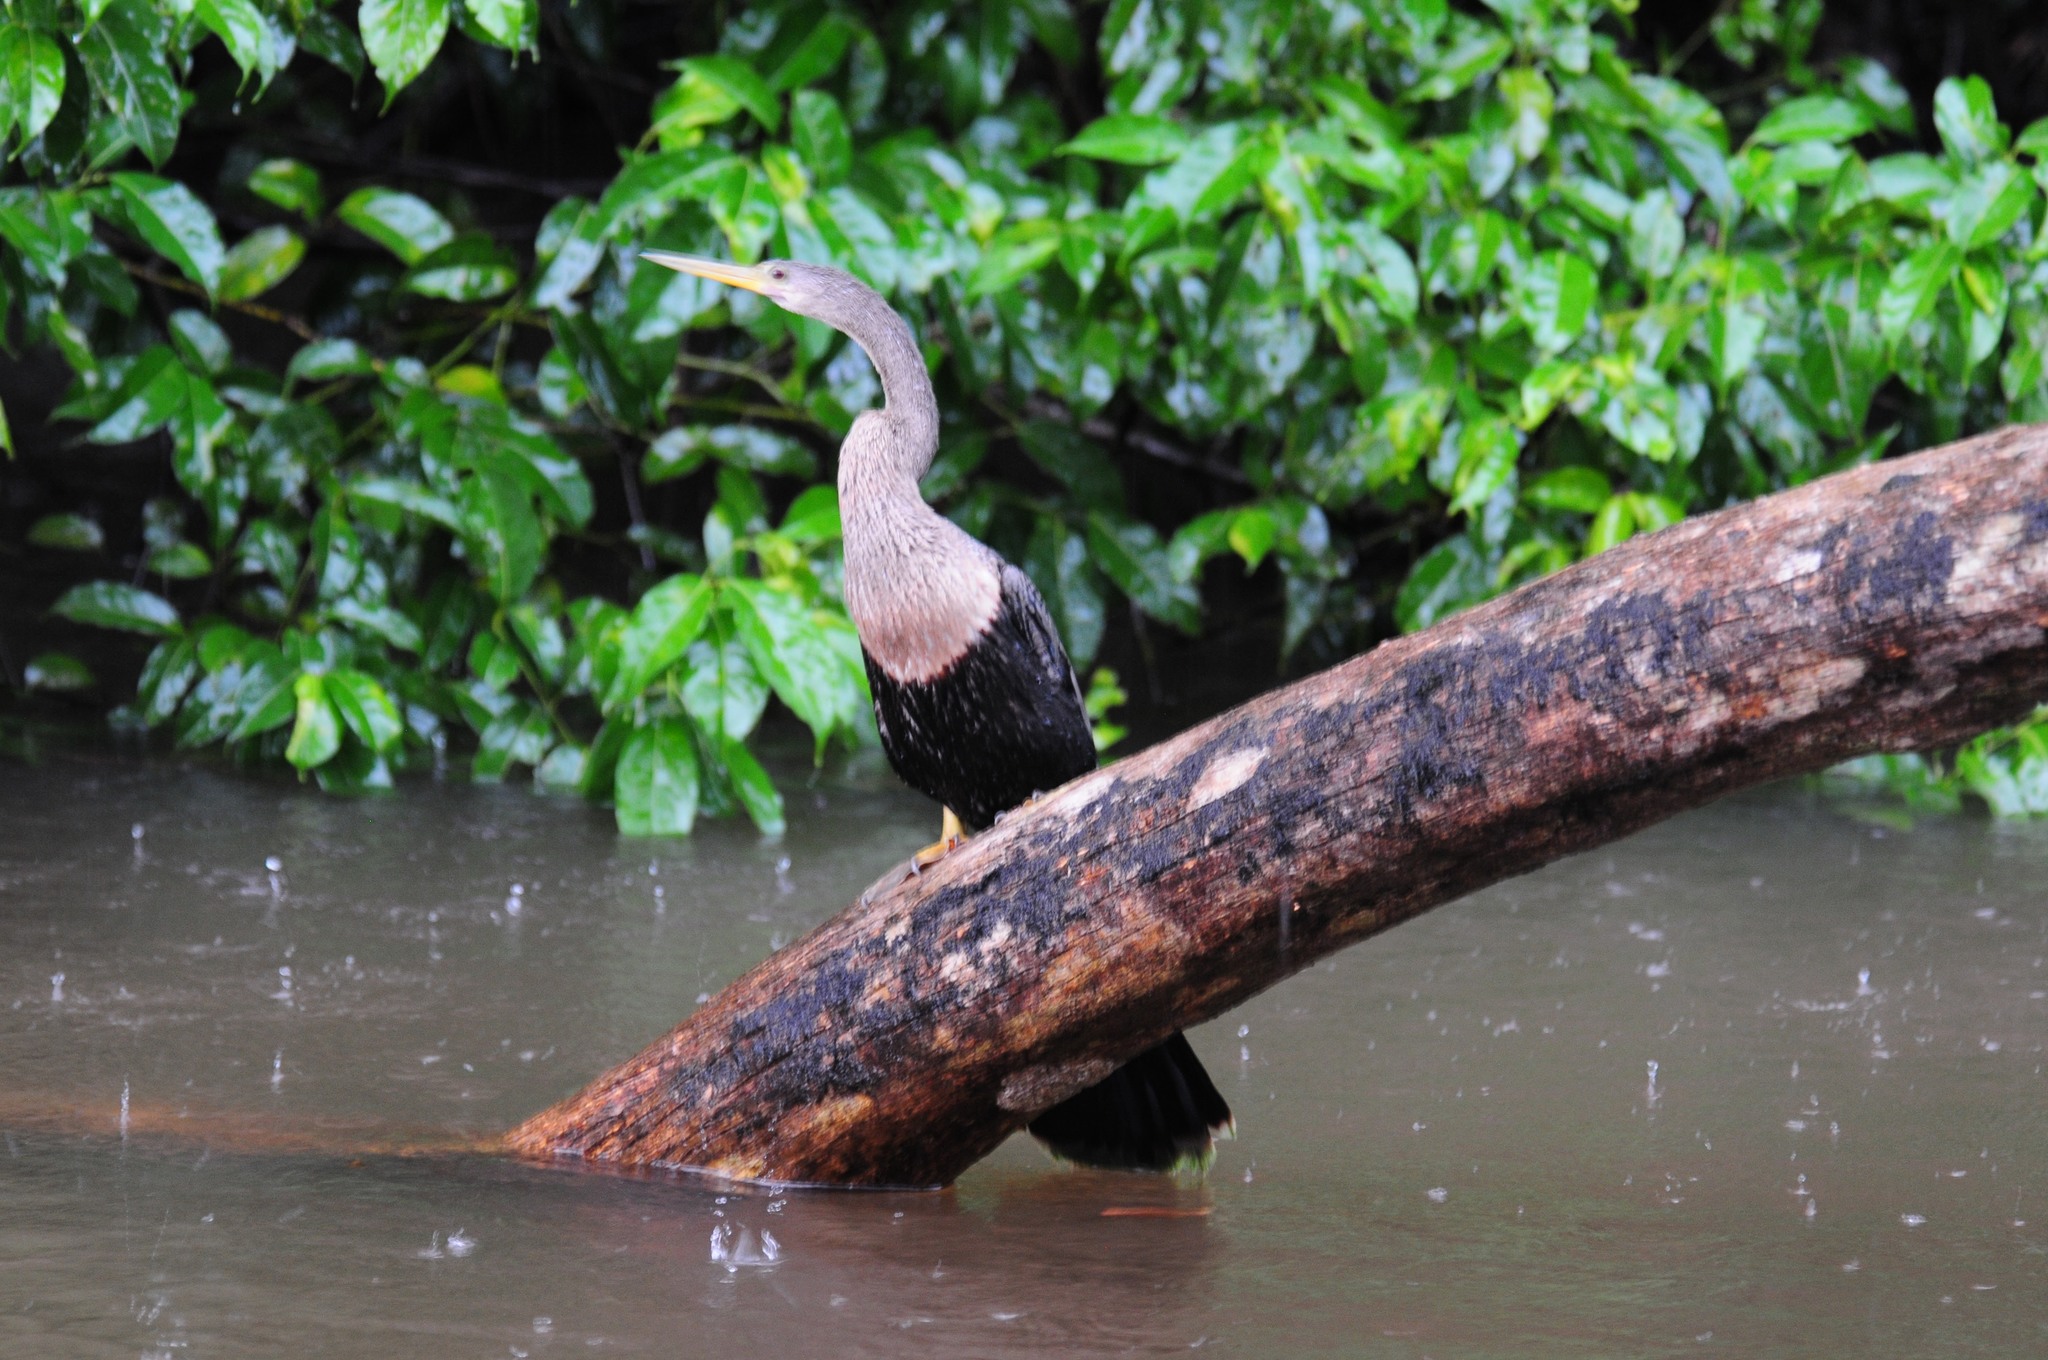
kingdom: Animalia
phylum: Chordata
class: Aves
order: Suliformes
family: Anhingidae
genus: Anhinga
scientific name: Anhinga anhinga
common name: Anhinga
